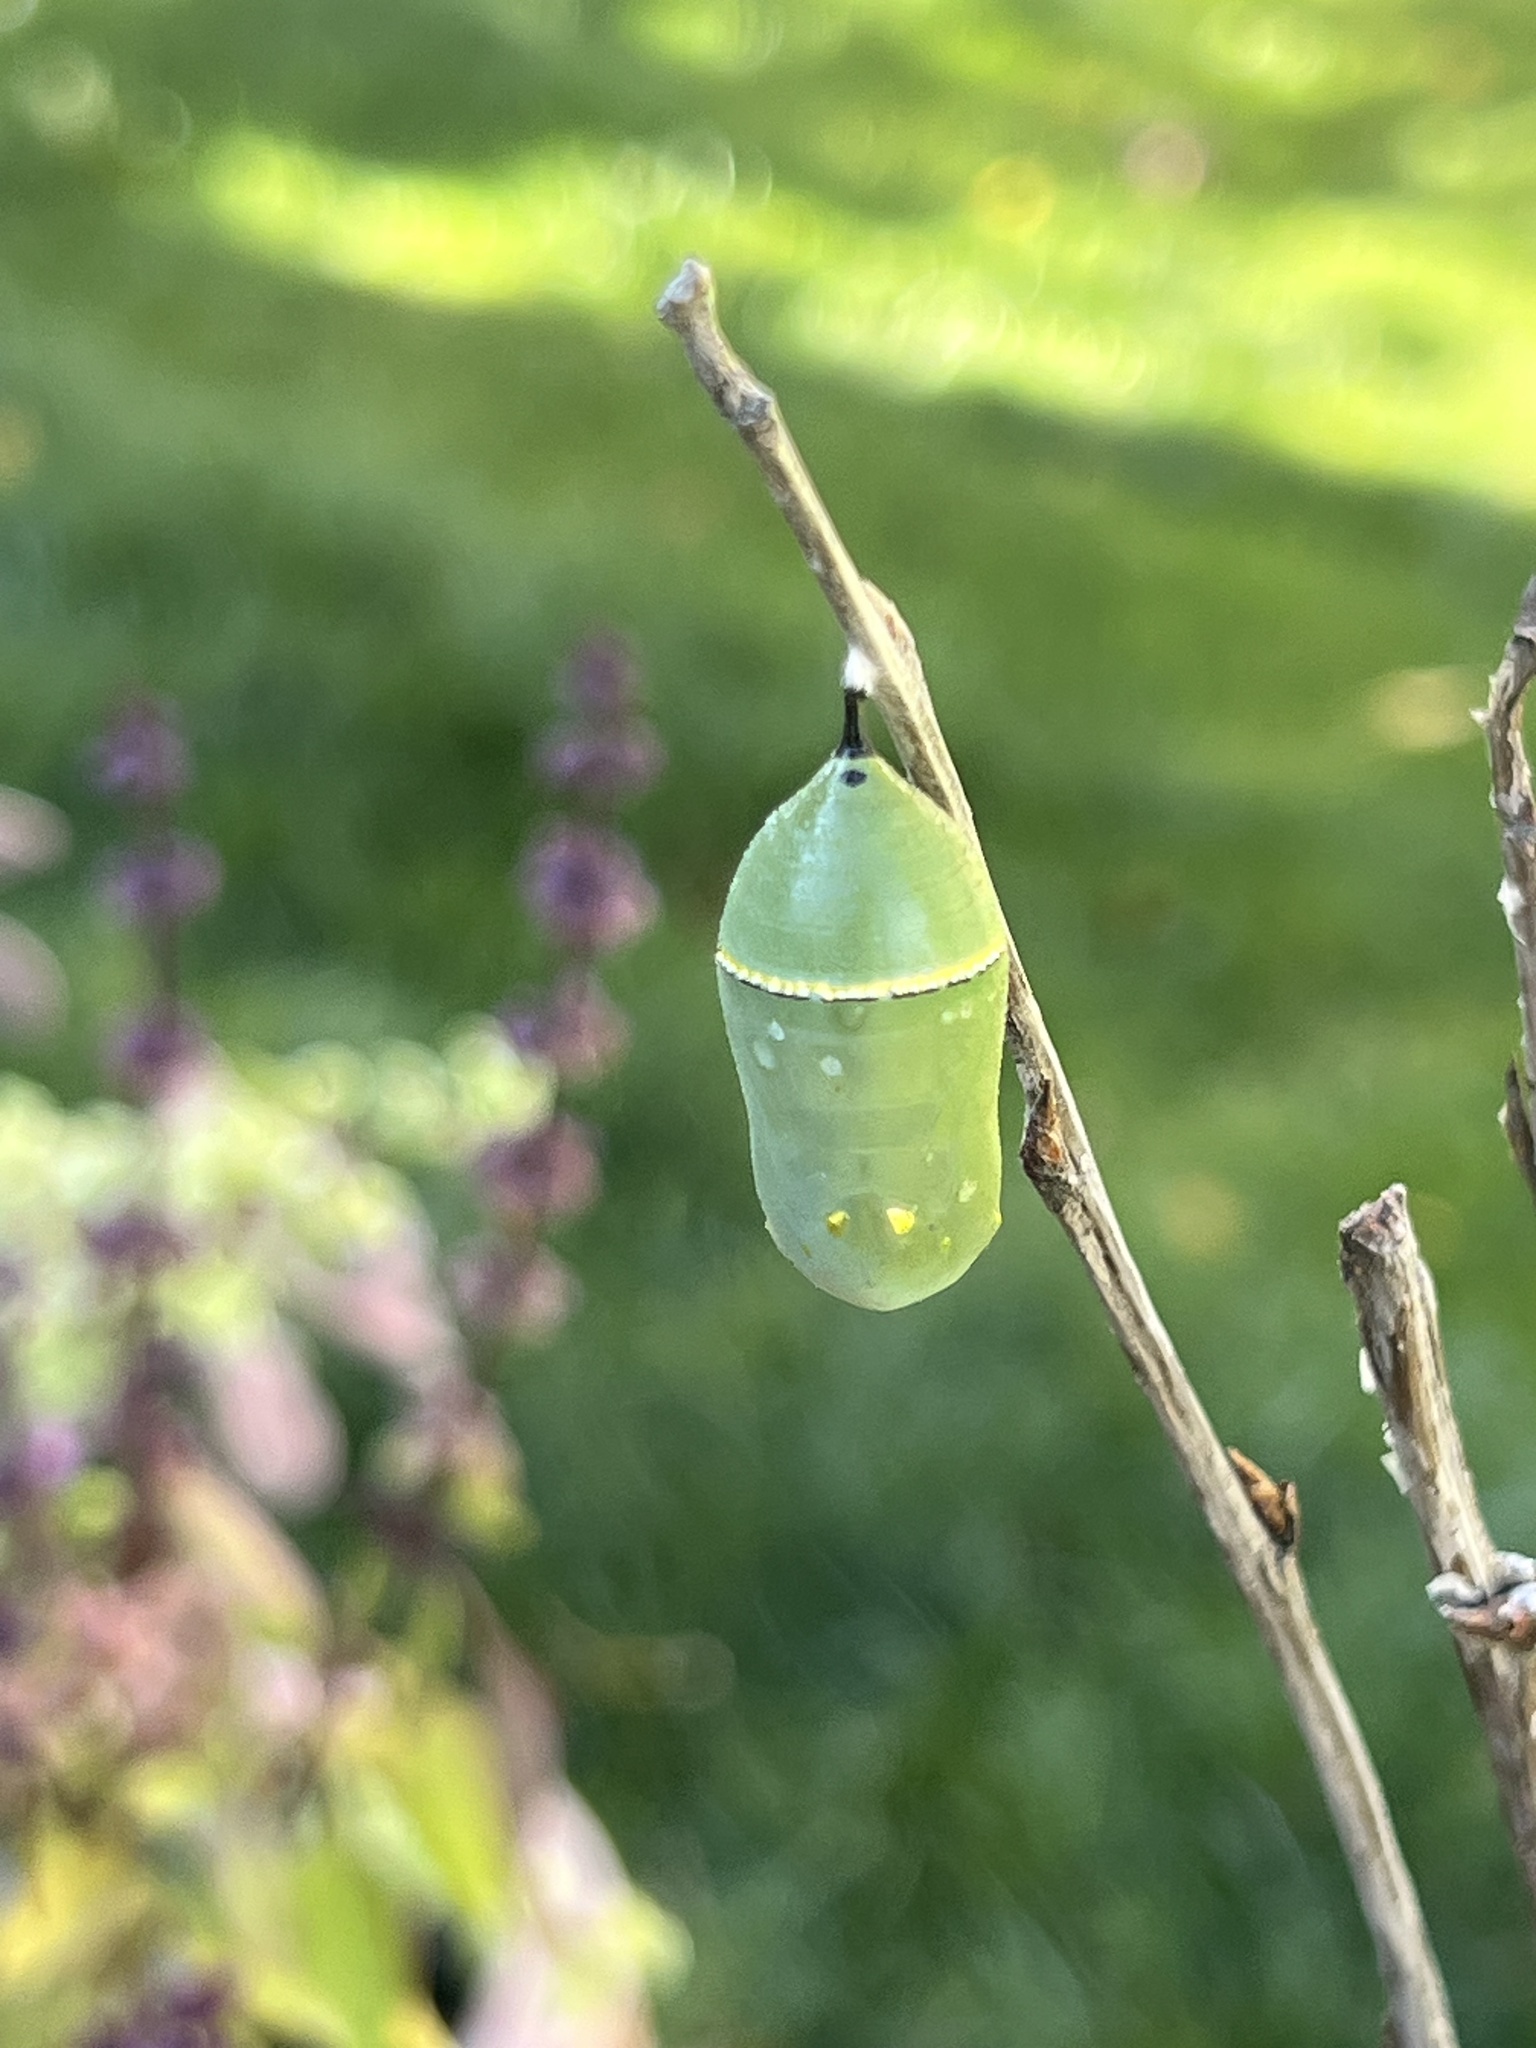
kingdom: Animalia
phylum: Arthropoda
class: Insecta
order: Lepidoptera
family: Nymphalidae
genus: Danaus
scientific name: Danaus plexippus
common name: Monarch
